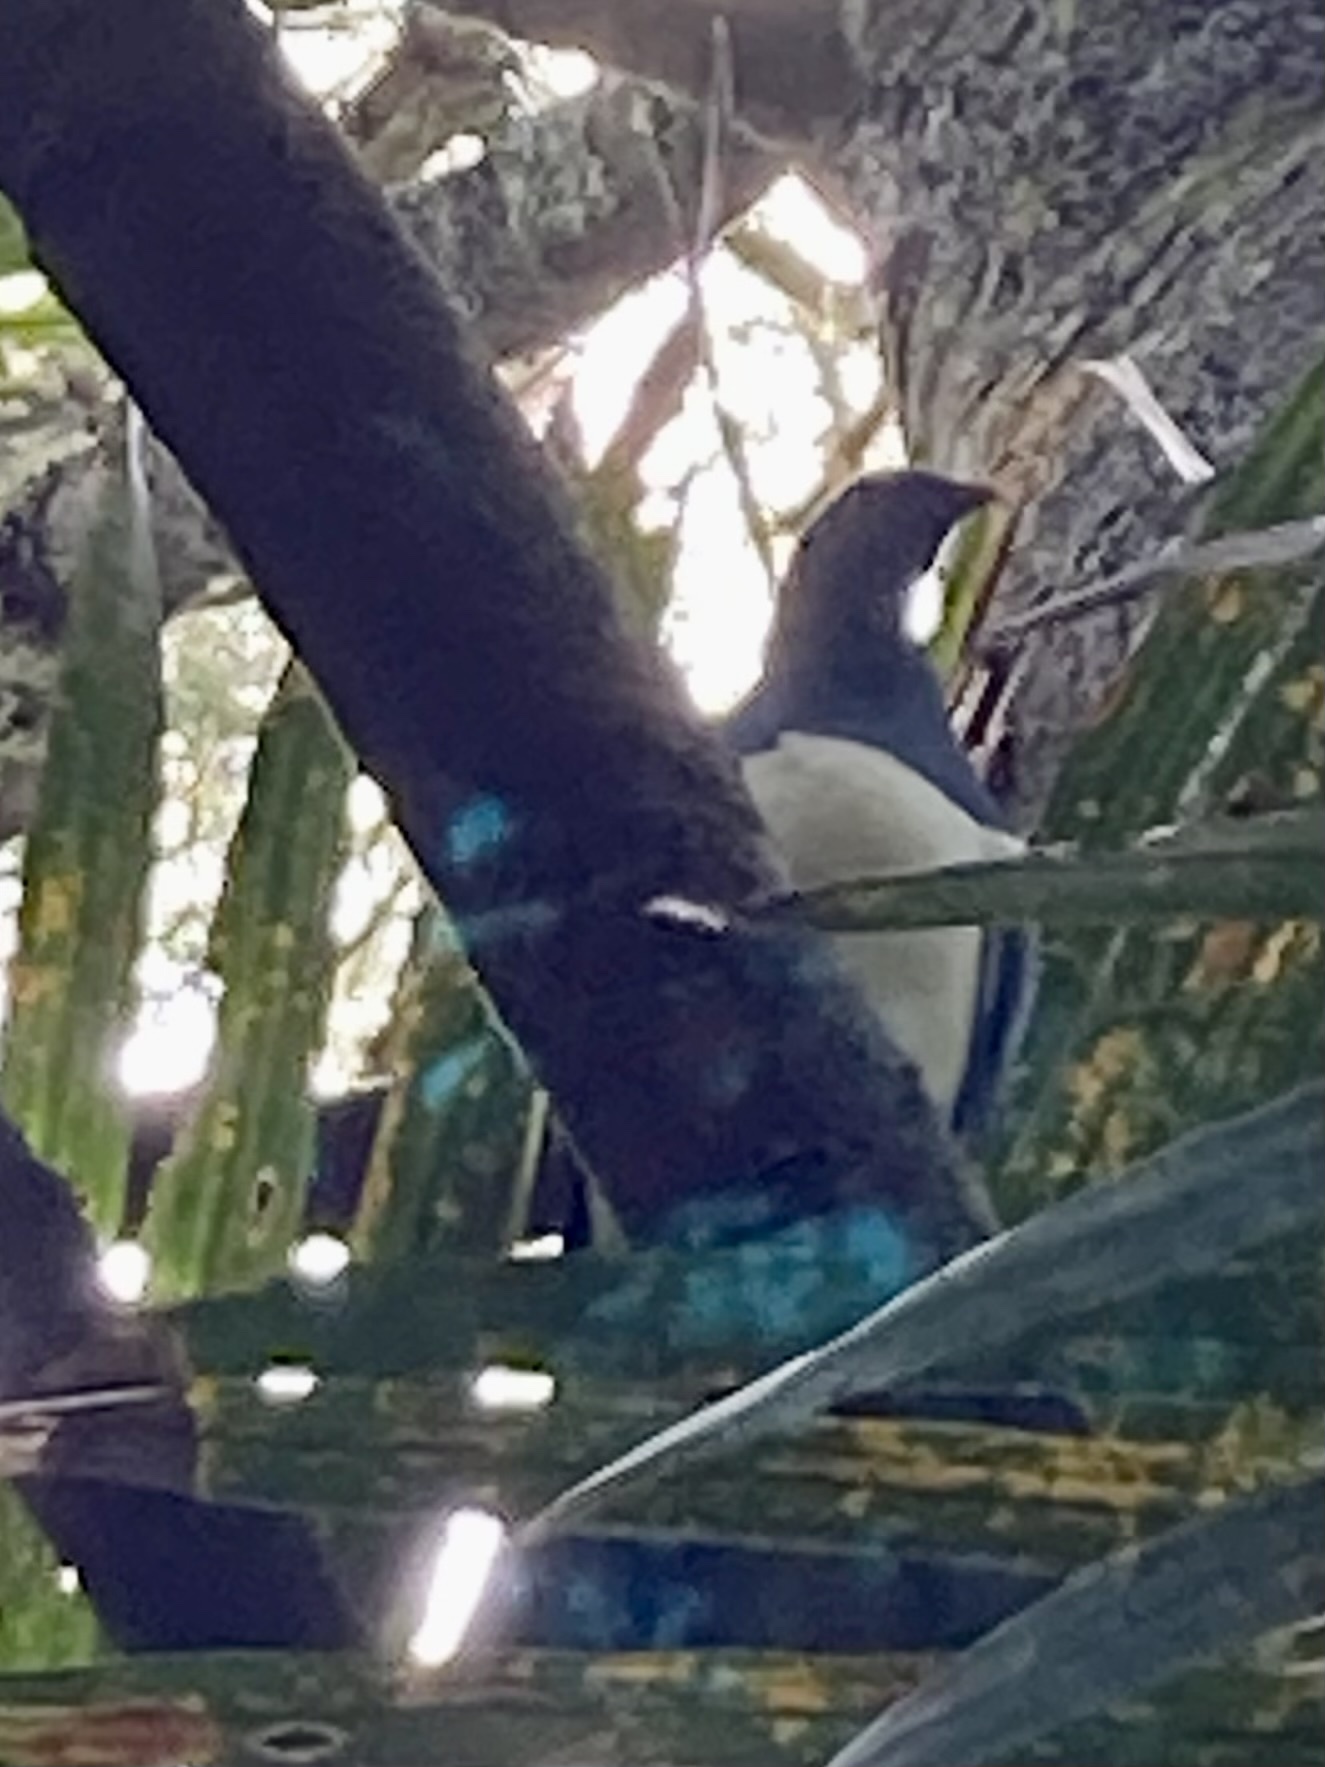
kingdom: Animalia
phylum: Chordata
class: Aves
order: Columbiformes
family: Columbidae
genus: Hemiphaga
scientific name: Hemiphaga novaeseelandiae
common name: New zealand pigeon
